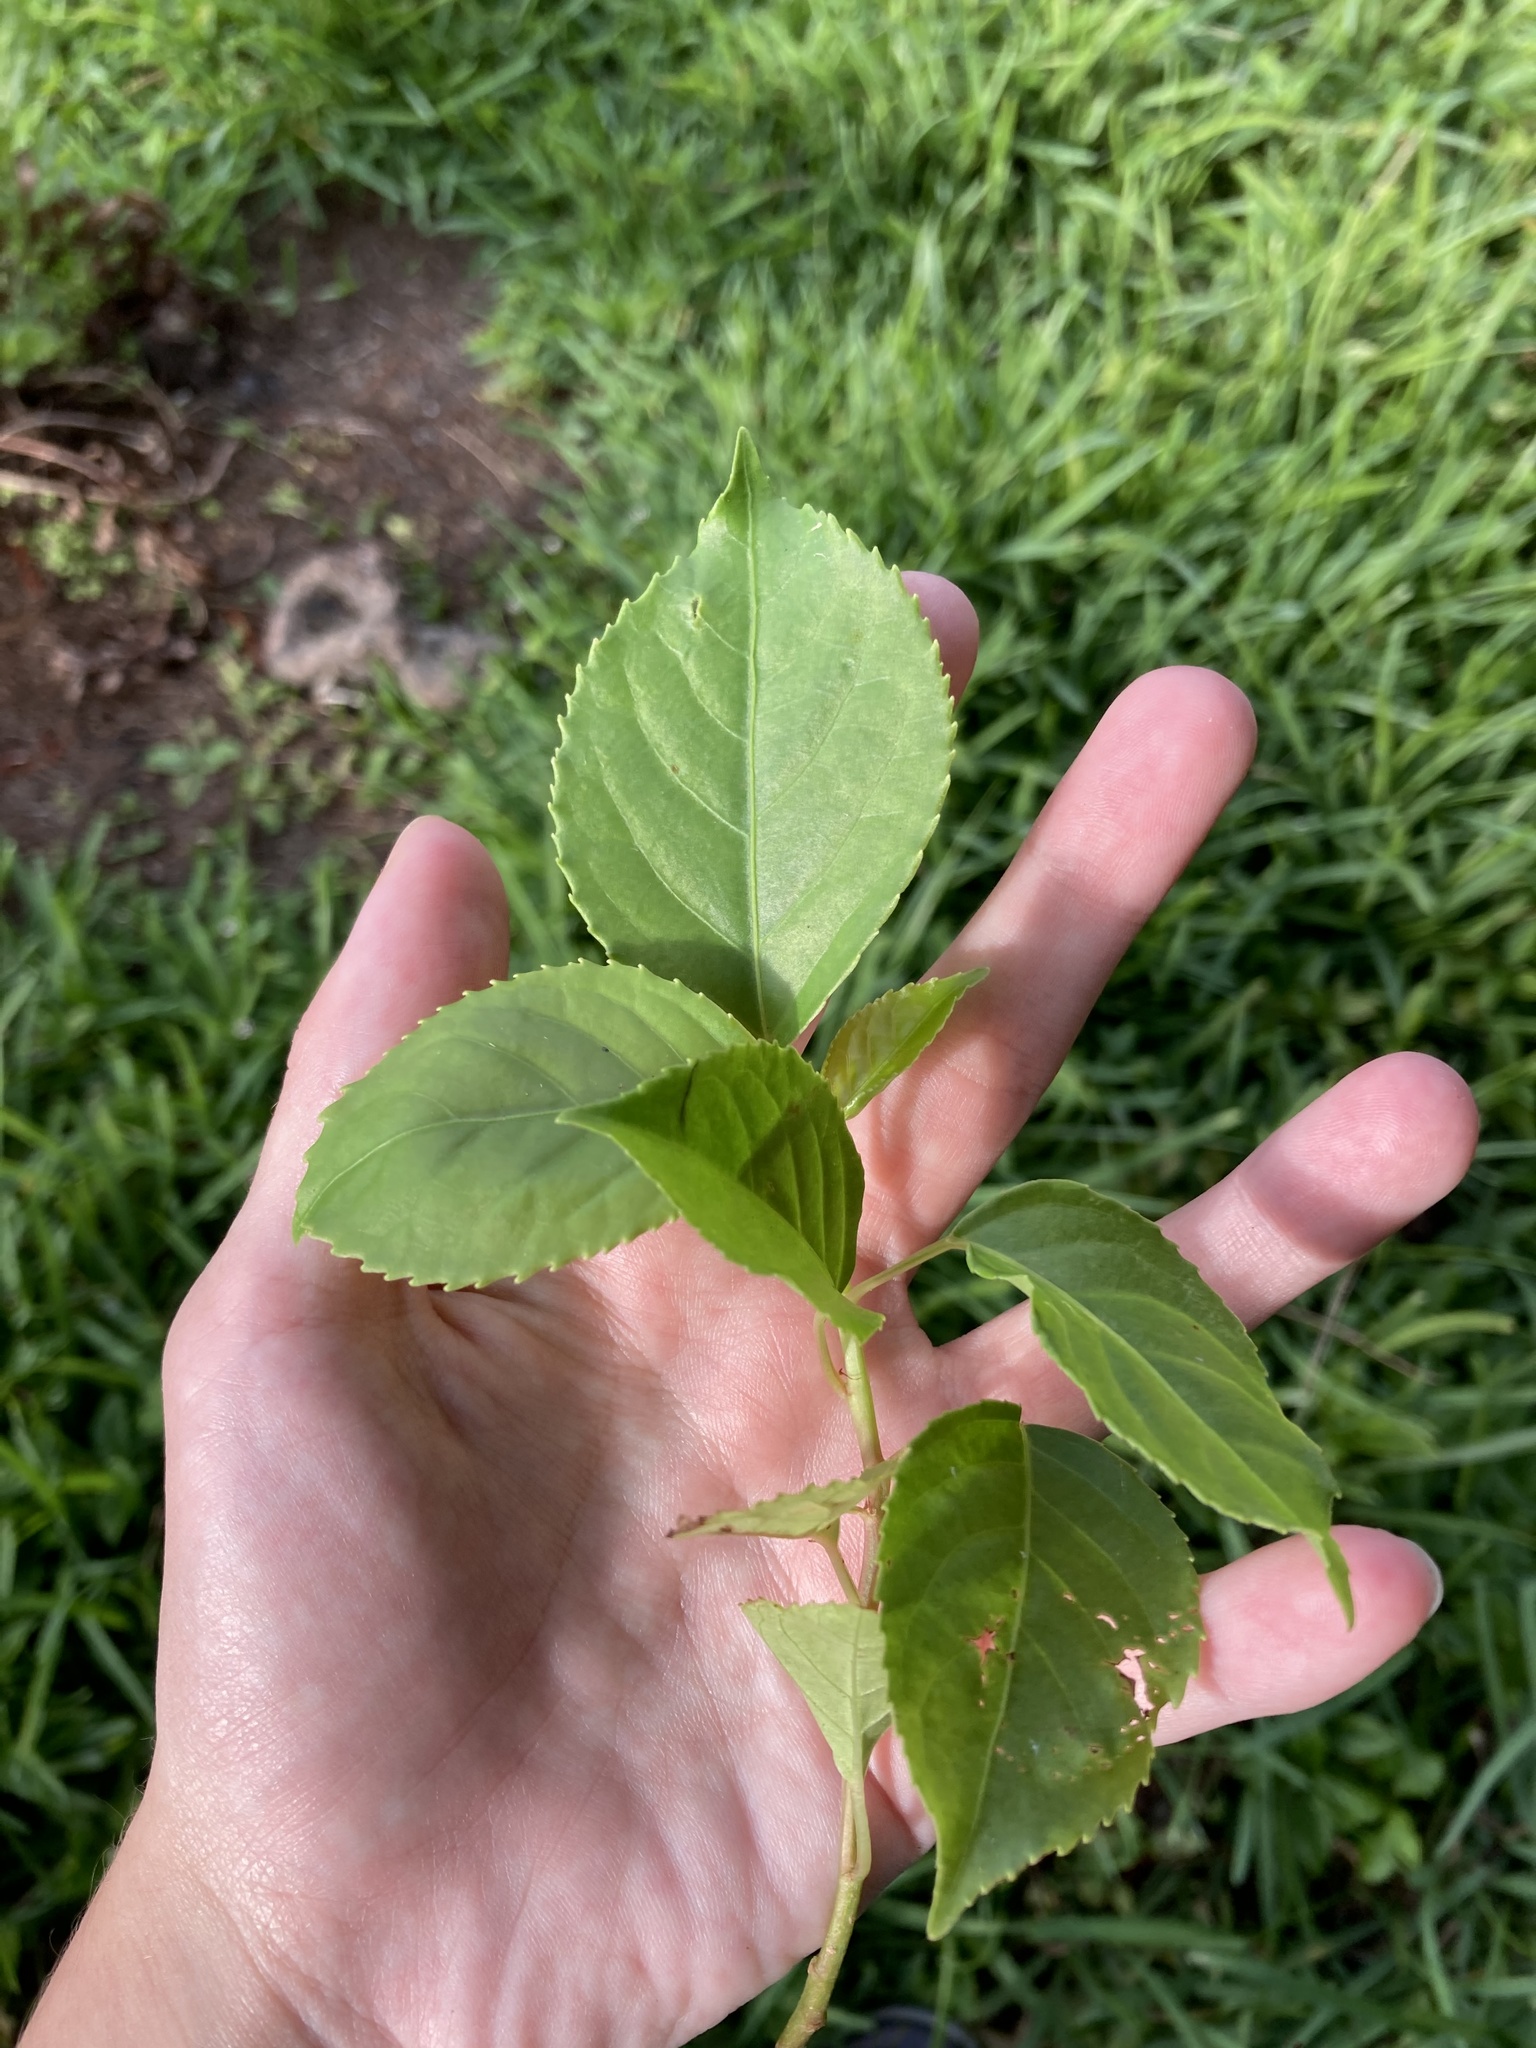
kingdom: Plantae
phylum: Tracheophyta
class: Magnoliopsida
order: Malpighiales
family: Phyllanthaceae
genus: Bischofia
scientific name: Bischofia javanica
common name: Javanese bishopwood
